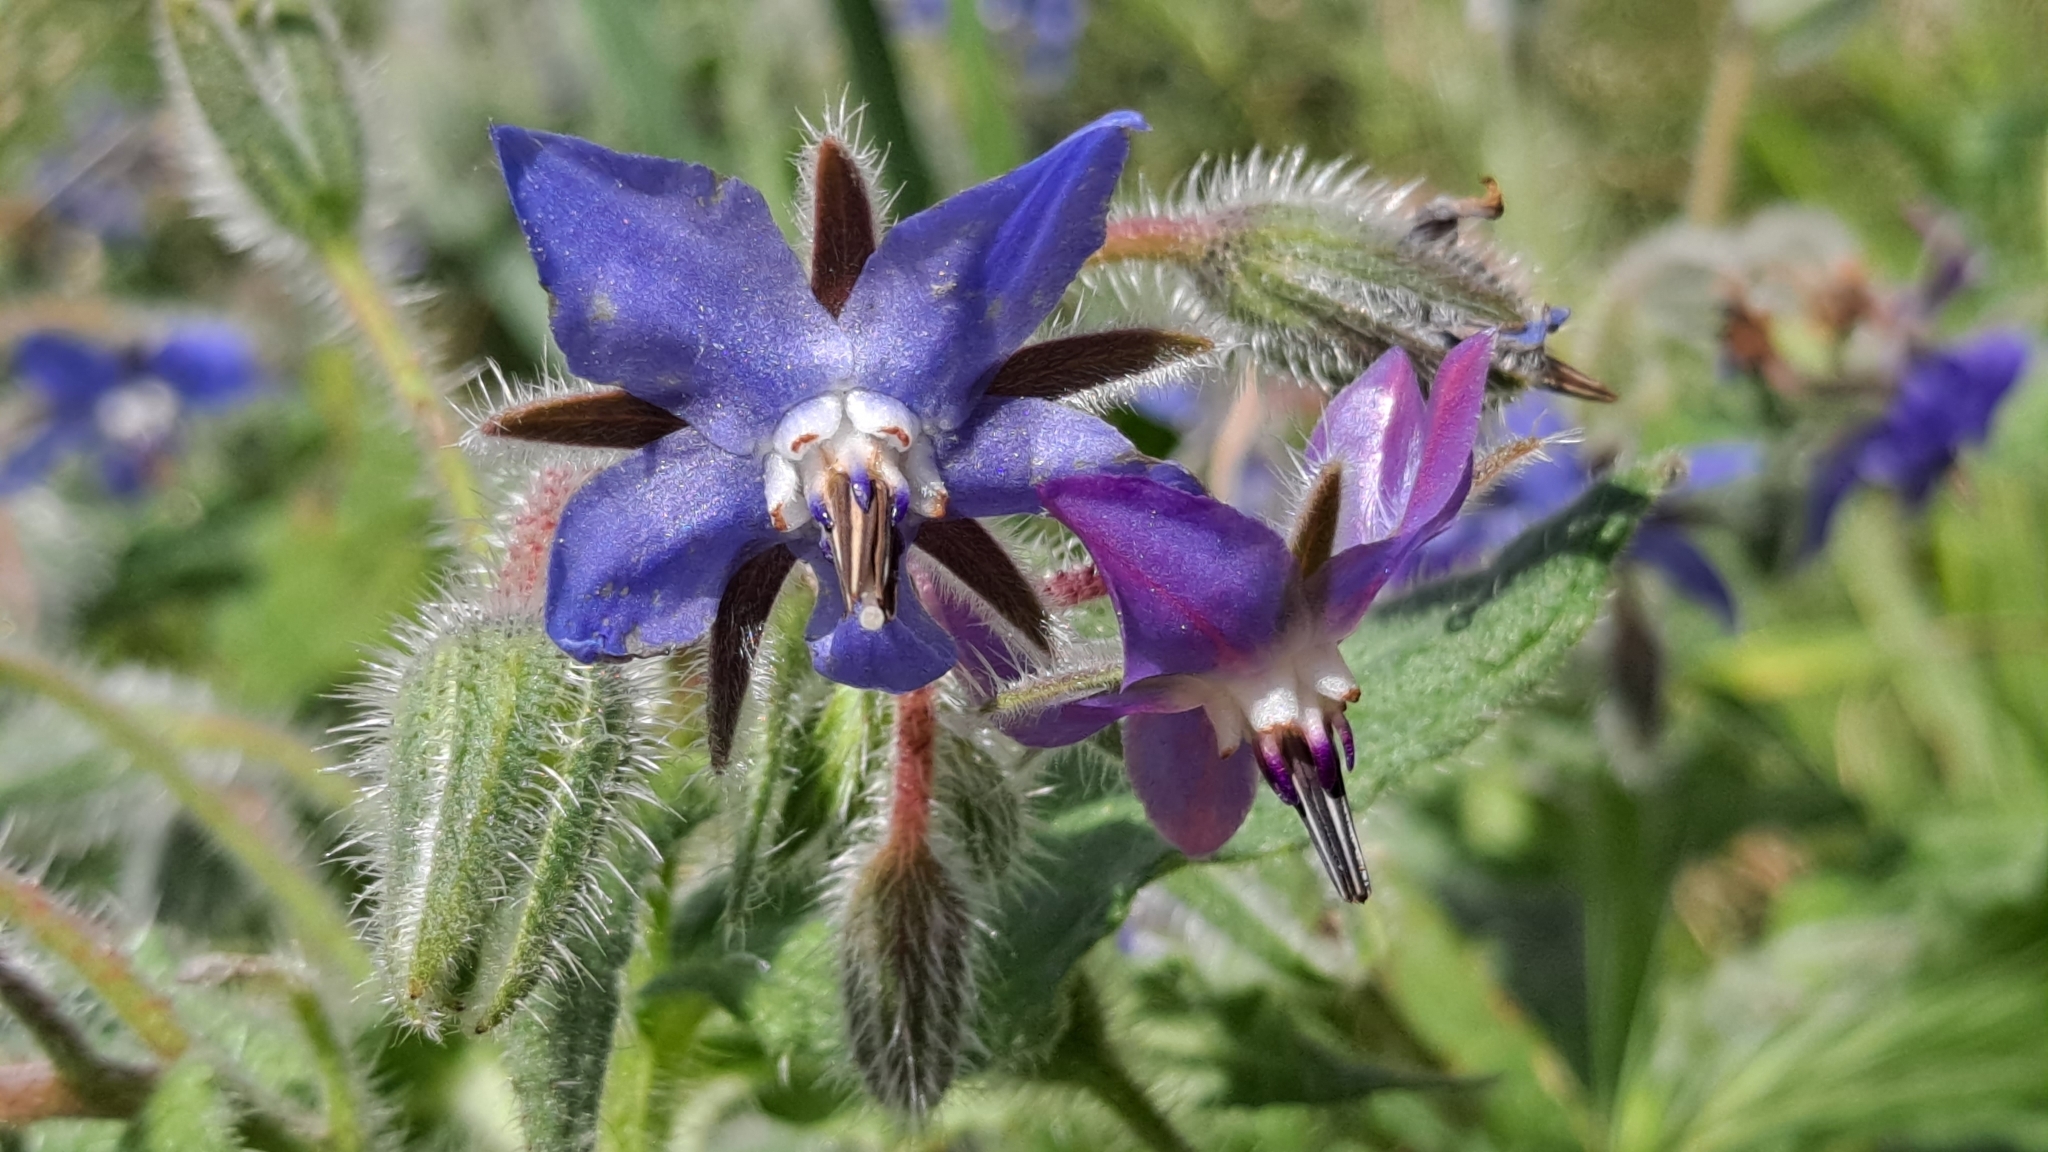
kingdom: Plantae
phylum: Tracheophyta
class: Magnoliopsida
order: Boraginales
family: Boraginaceae
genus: Borago
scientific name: Borago officinalis
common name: Borage
